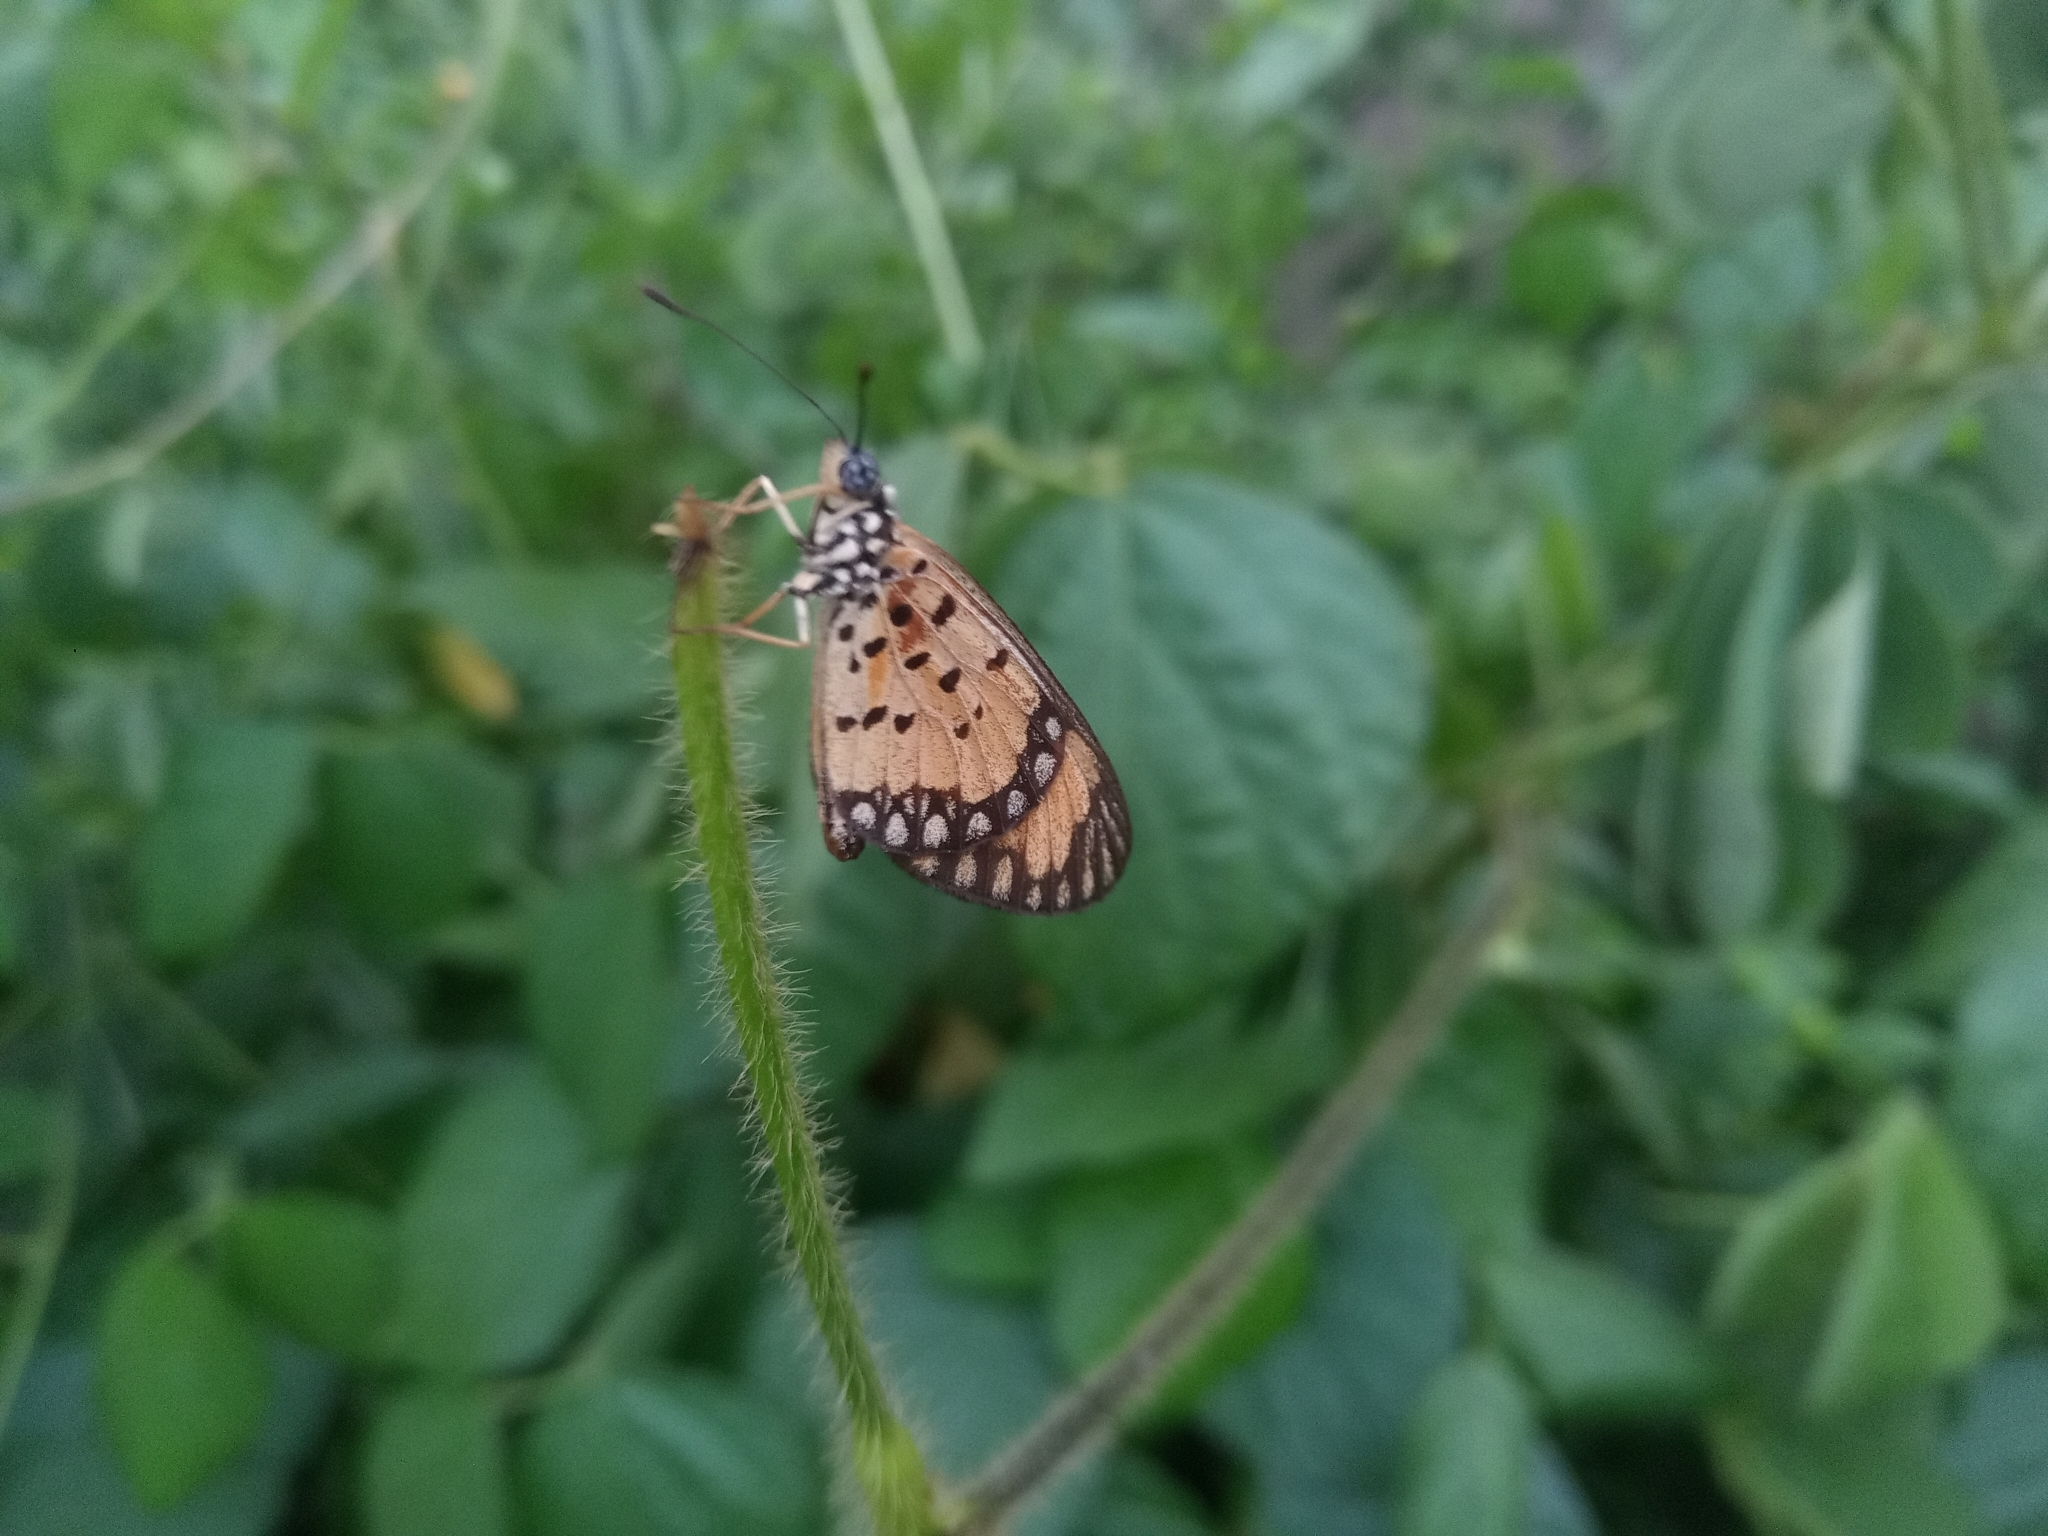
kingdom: Animalia
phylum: Arthropoda
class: Insecta
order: Lepidoptera
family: Nymphalidae
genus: Acraea
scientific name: Acraea Telchinia serena
